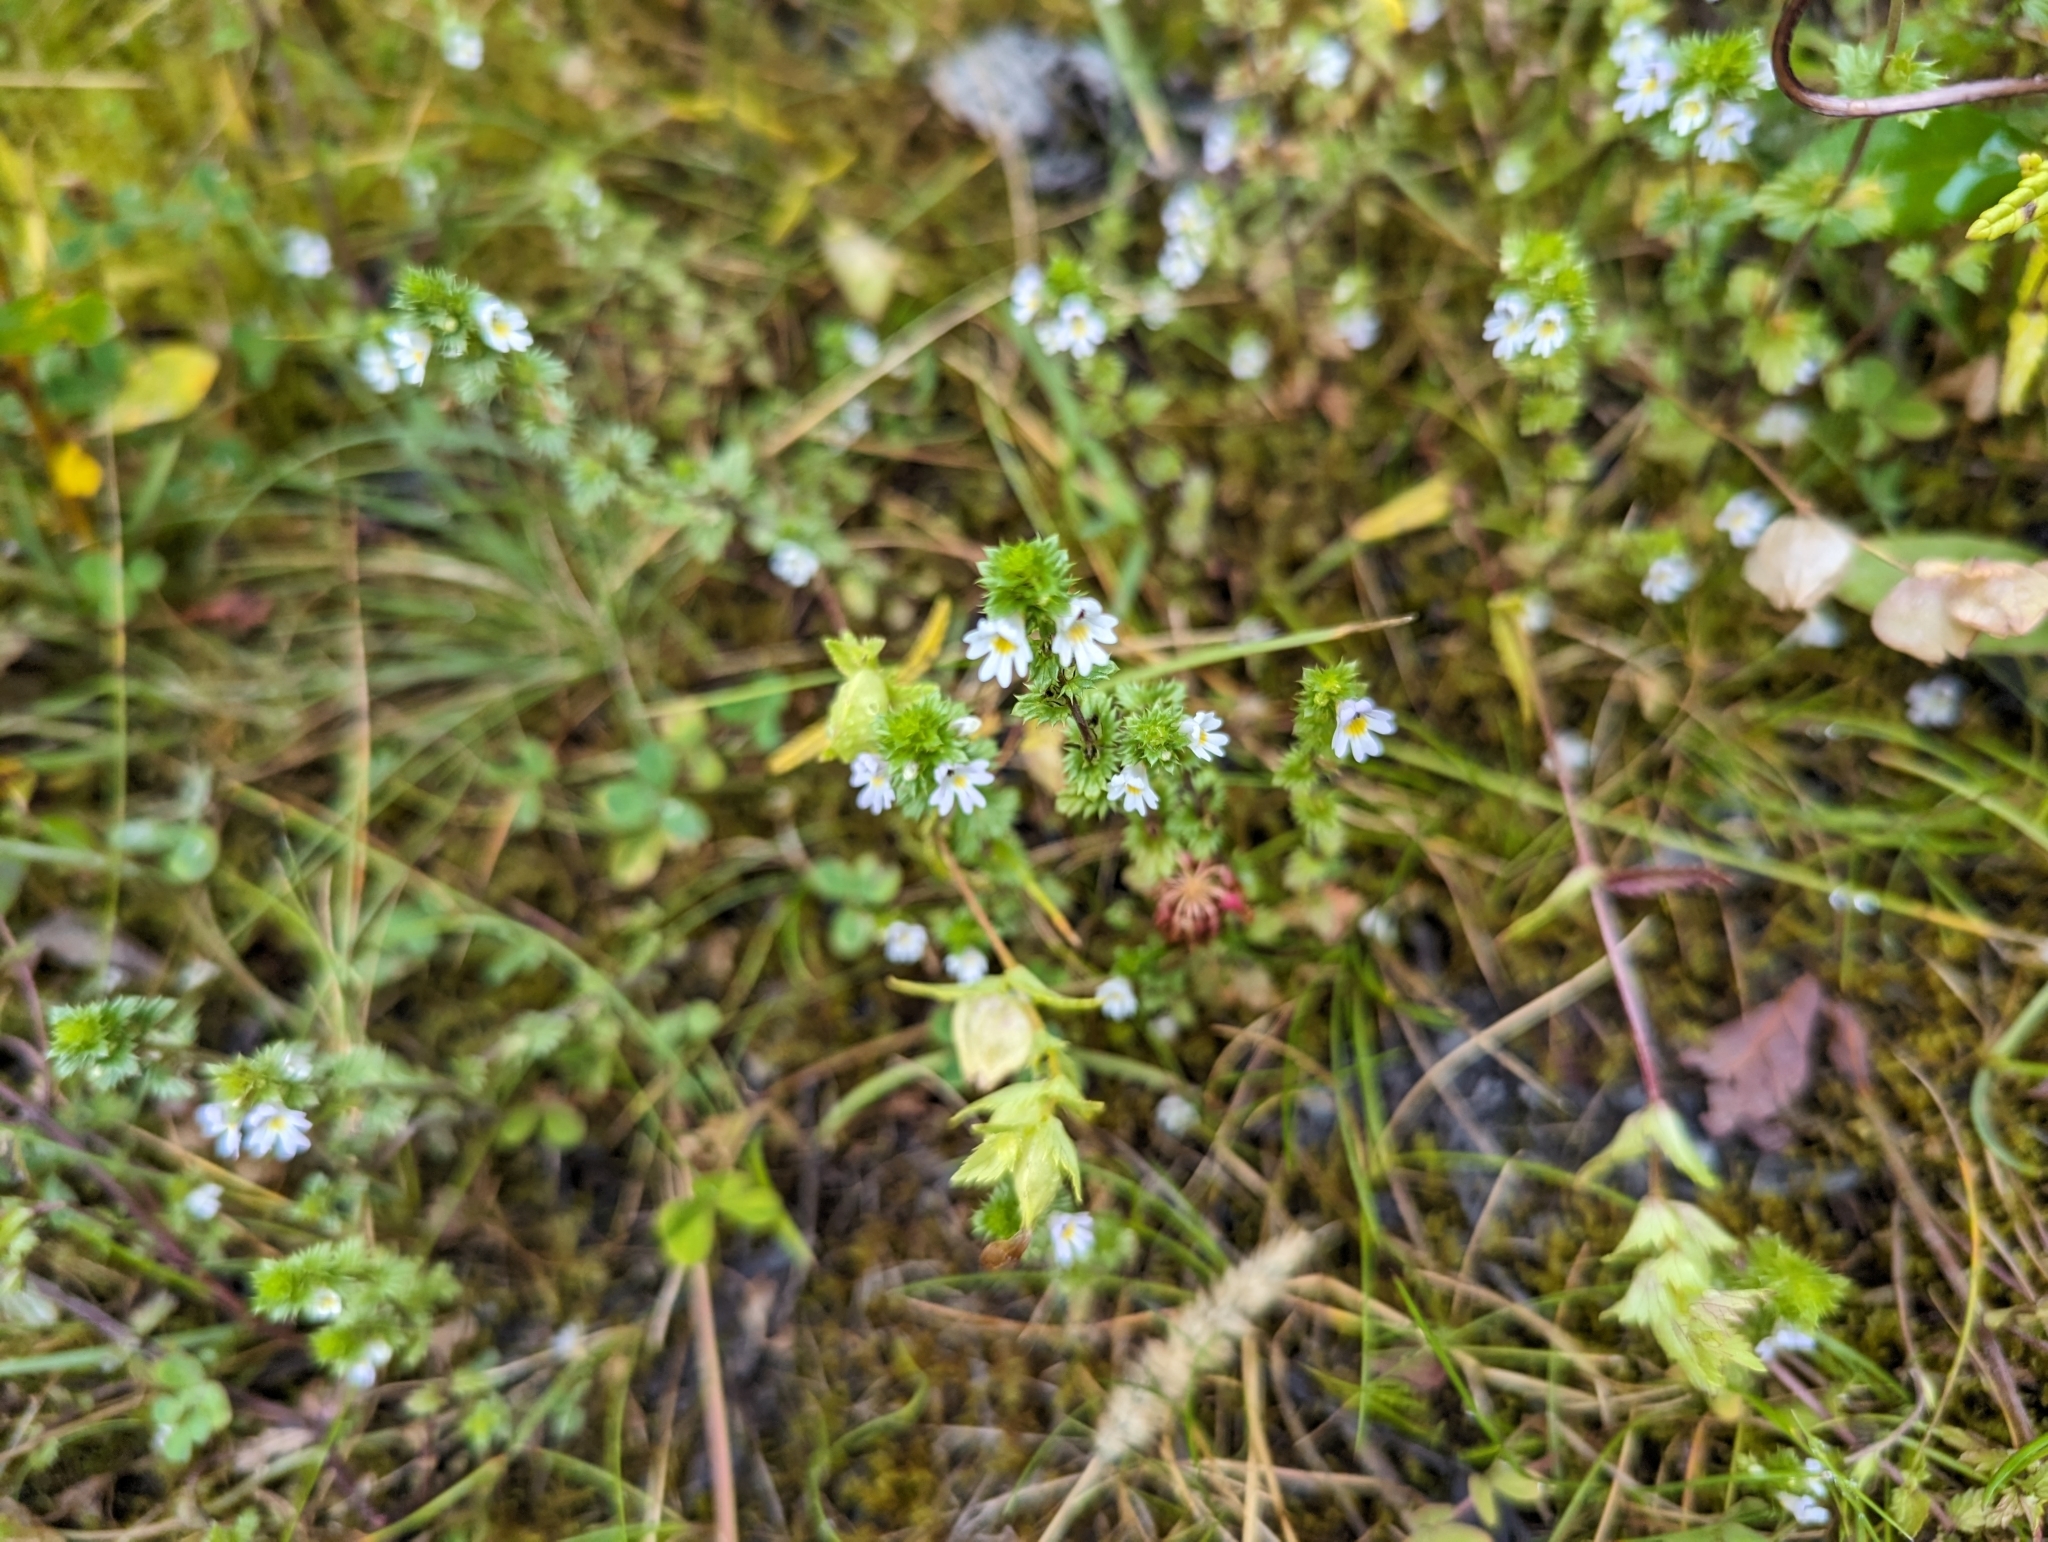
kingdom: Plantae
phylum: Tracheophyta
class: Magnoliopsida
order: Lamiales
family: Orobanchaceae
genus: Euphrasia
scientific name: Euphrasia nemorosa
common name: Common eyebright
